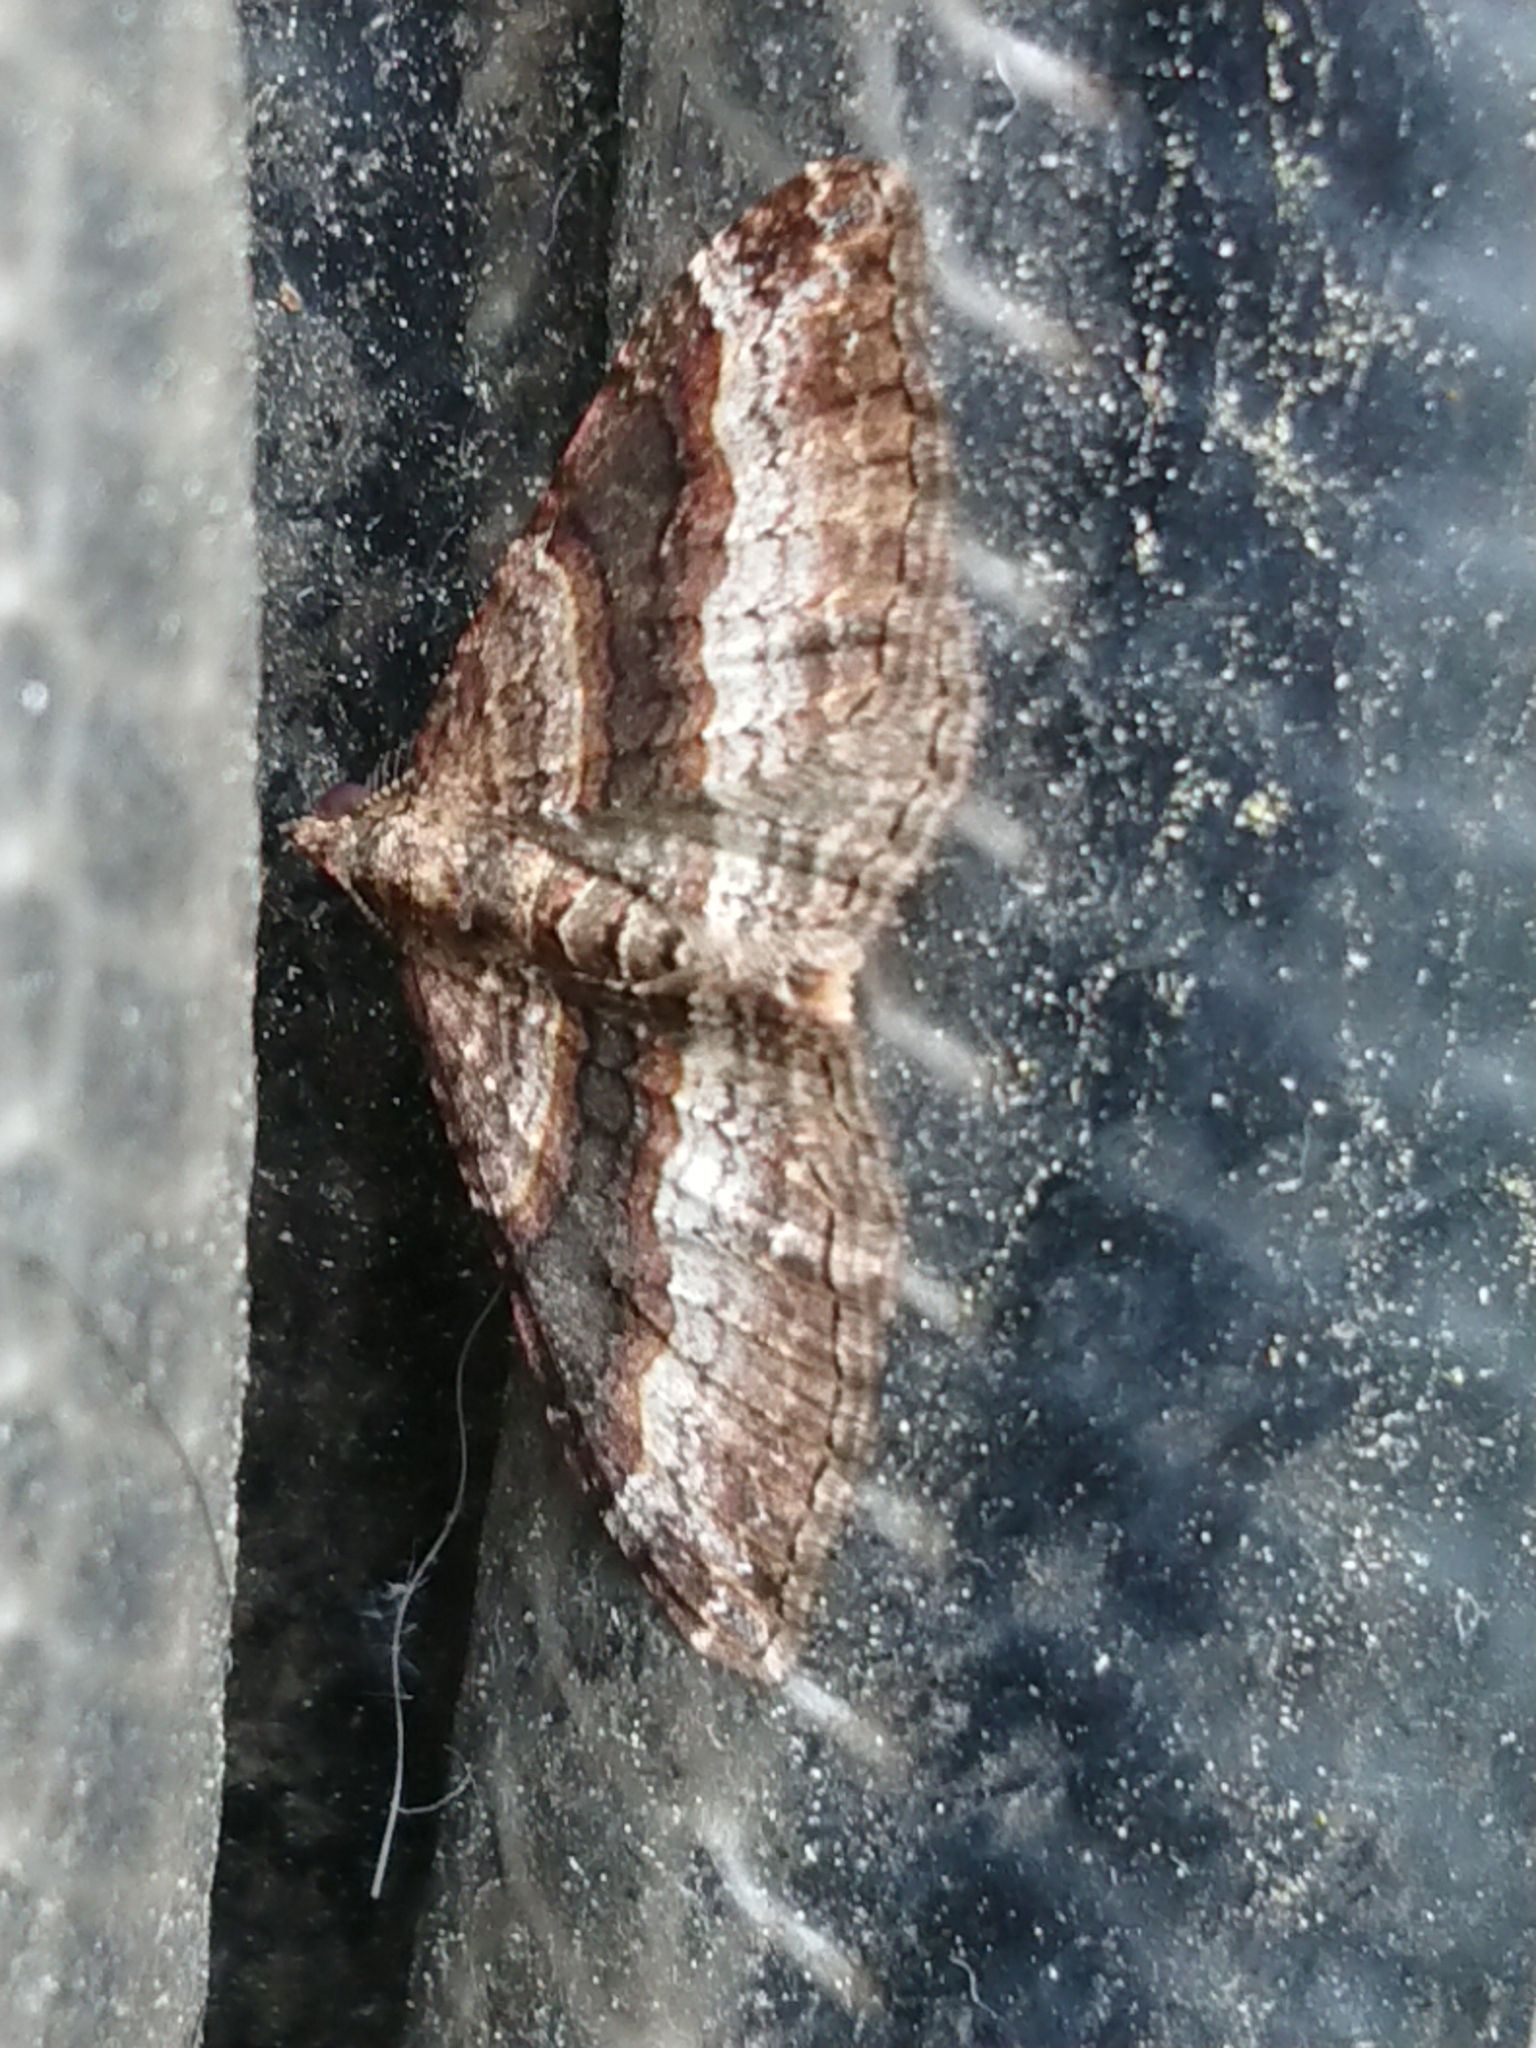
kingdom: Animalia
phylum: Arthropoda
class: Insecta
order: Lepidoptera
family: Geometridae
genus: Epyaxa
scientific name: Epyaxa lucidata
